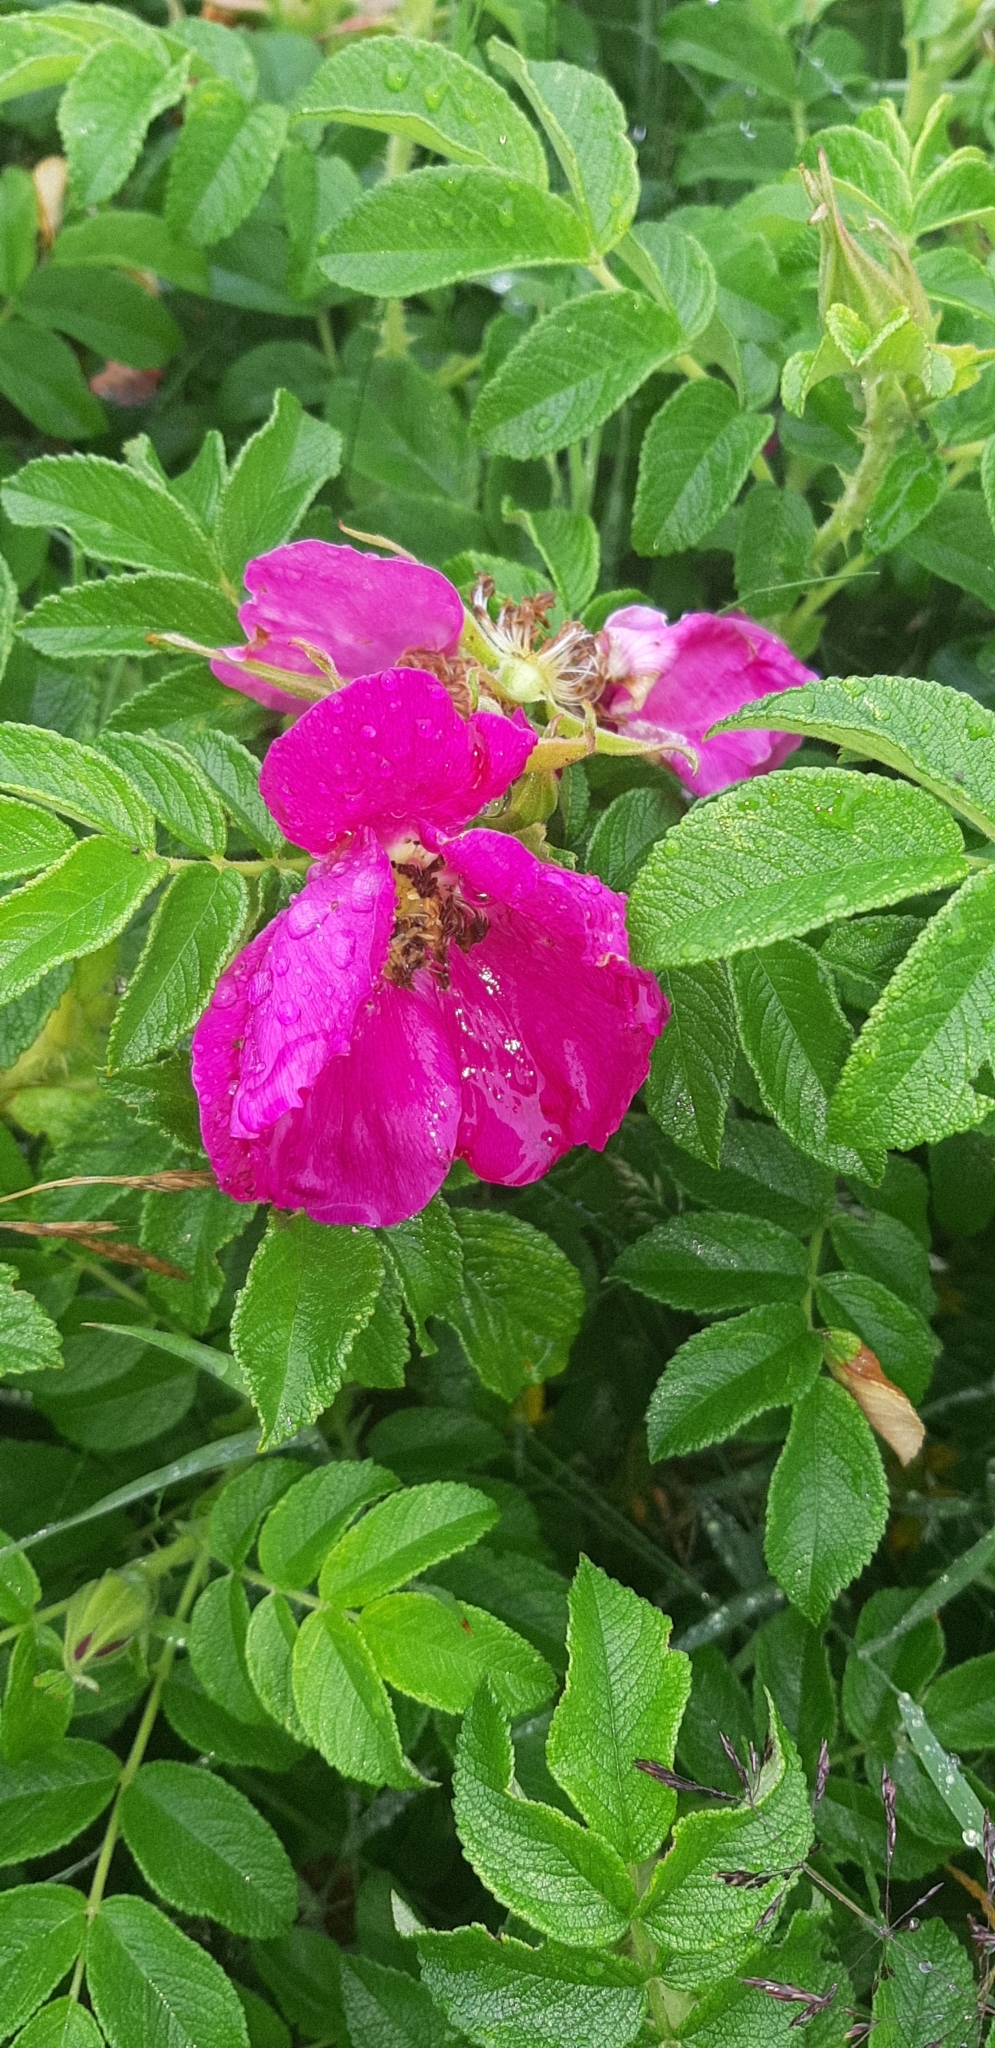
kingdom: Plantae
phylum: Tracheophyta
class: Magnoliopsida
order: Rosales
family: Rosaceae
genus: Rosa
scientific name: Rosa rugosa
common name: Japanese rose
